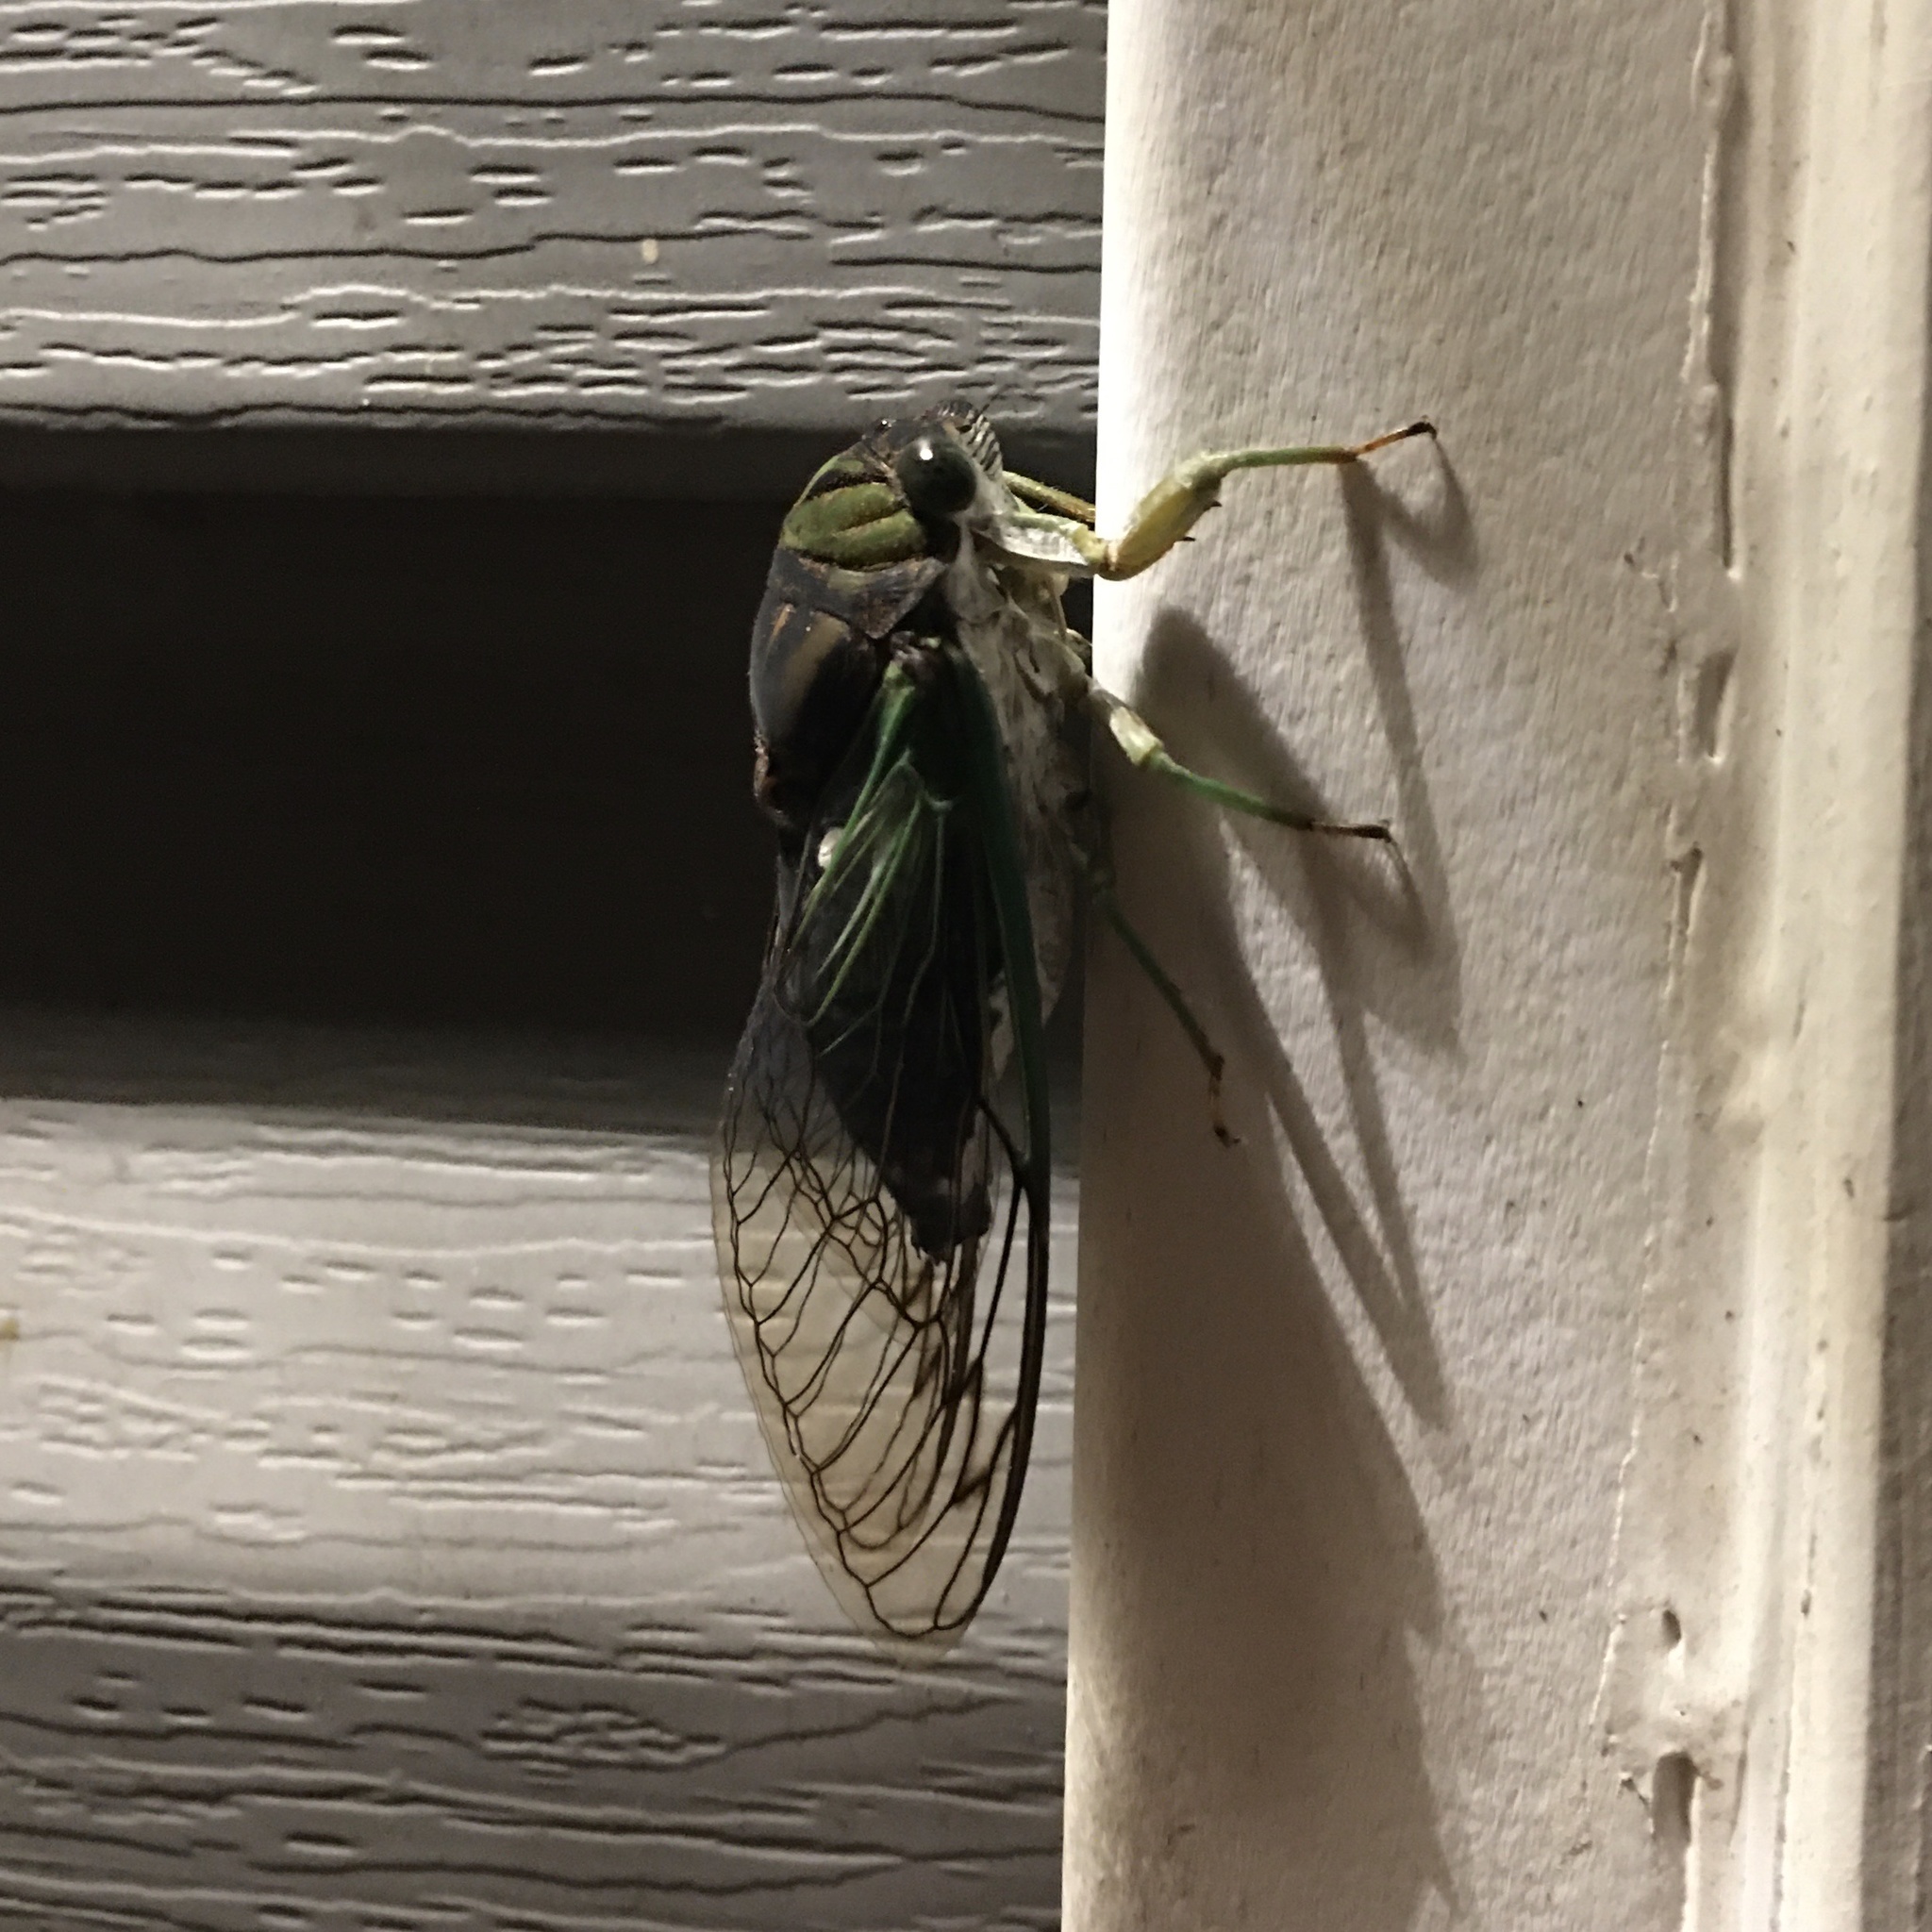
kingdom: Animalia
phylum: Arthropoda
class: Insecta
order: Hemiptera
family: Cicadidae
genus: Neotibicen
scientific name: Neotibicen tibicen
